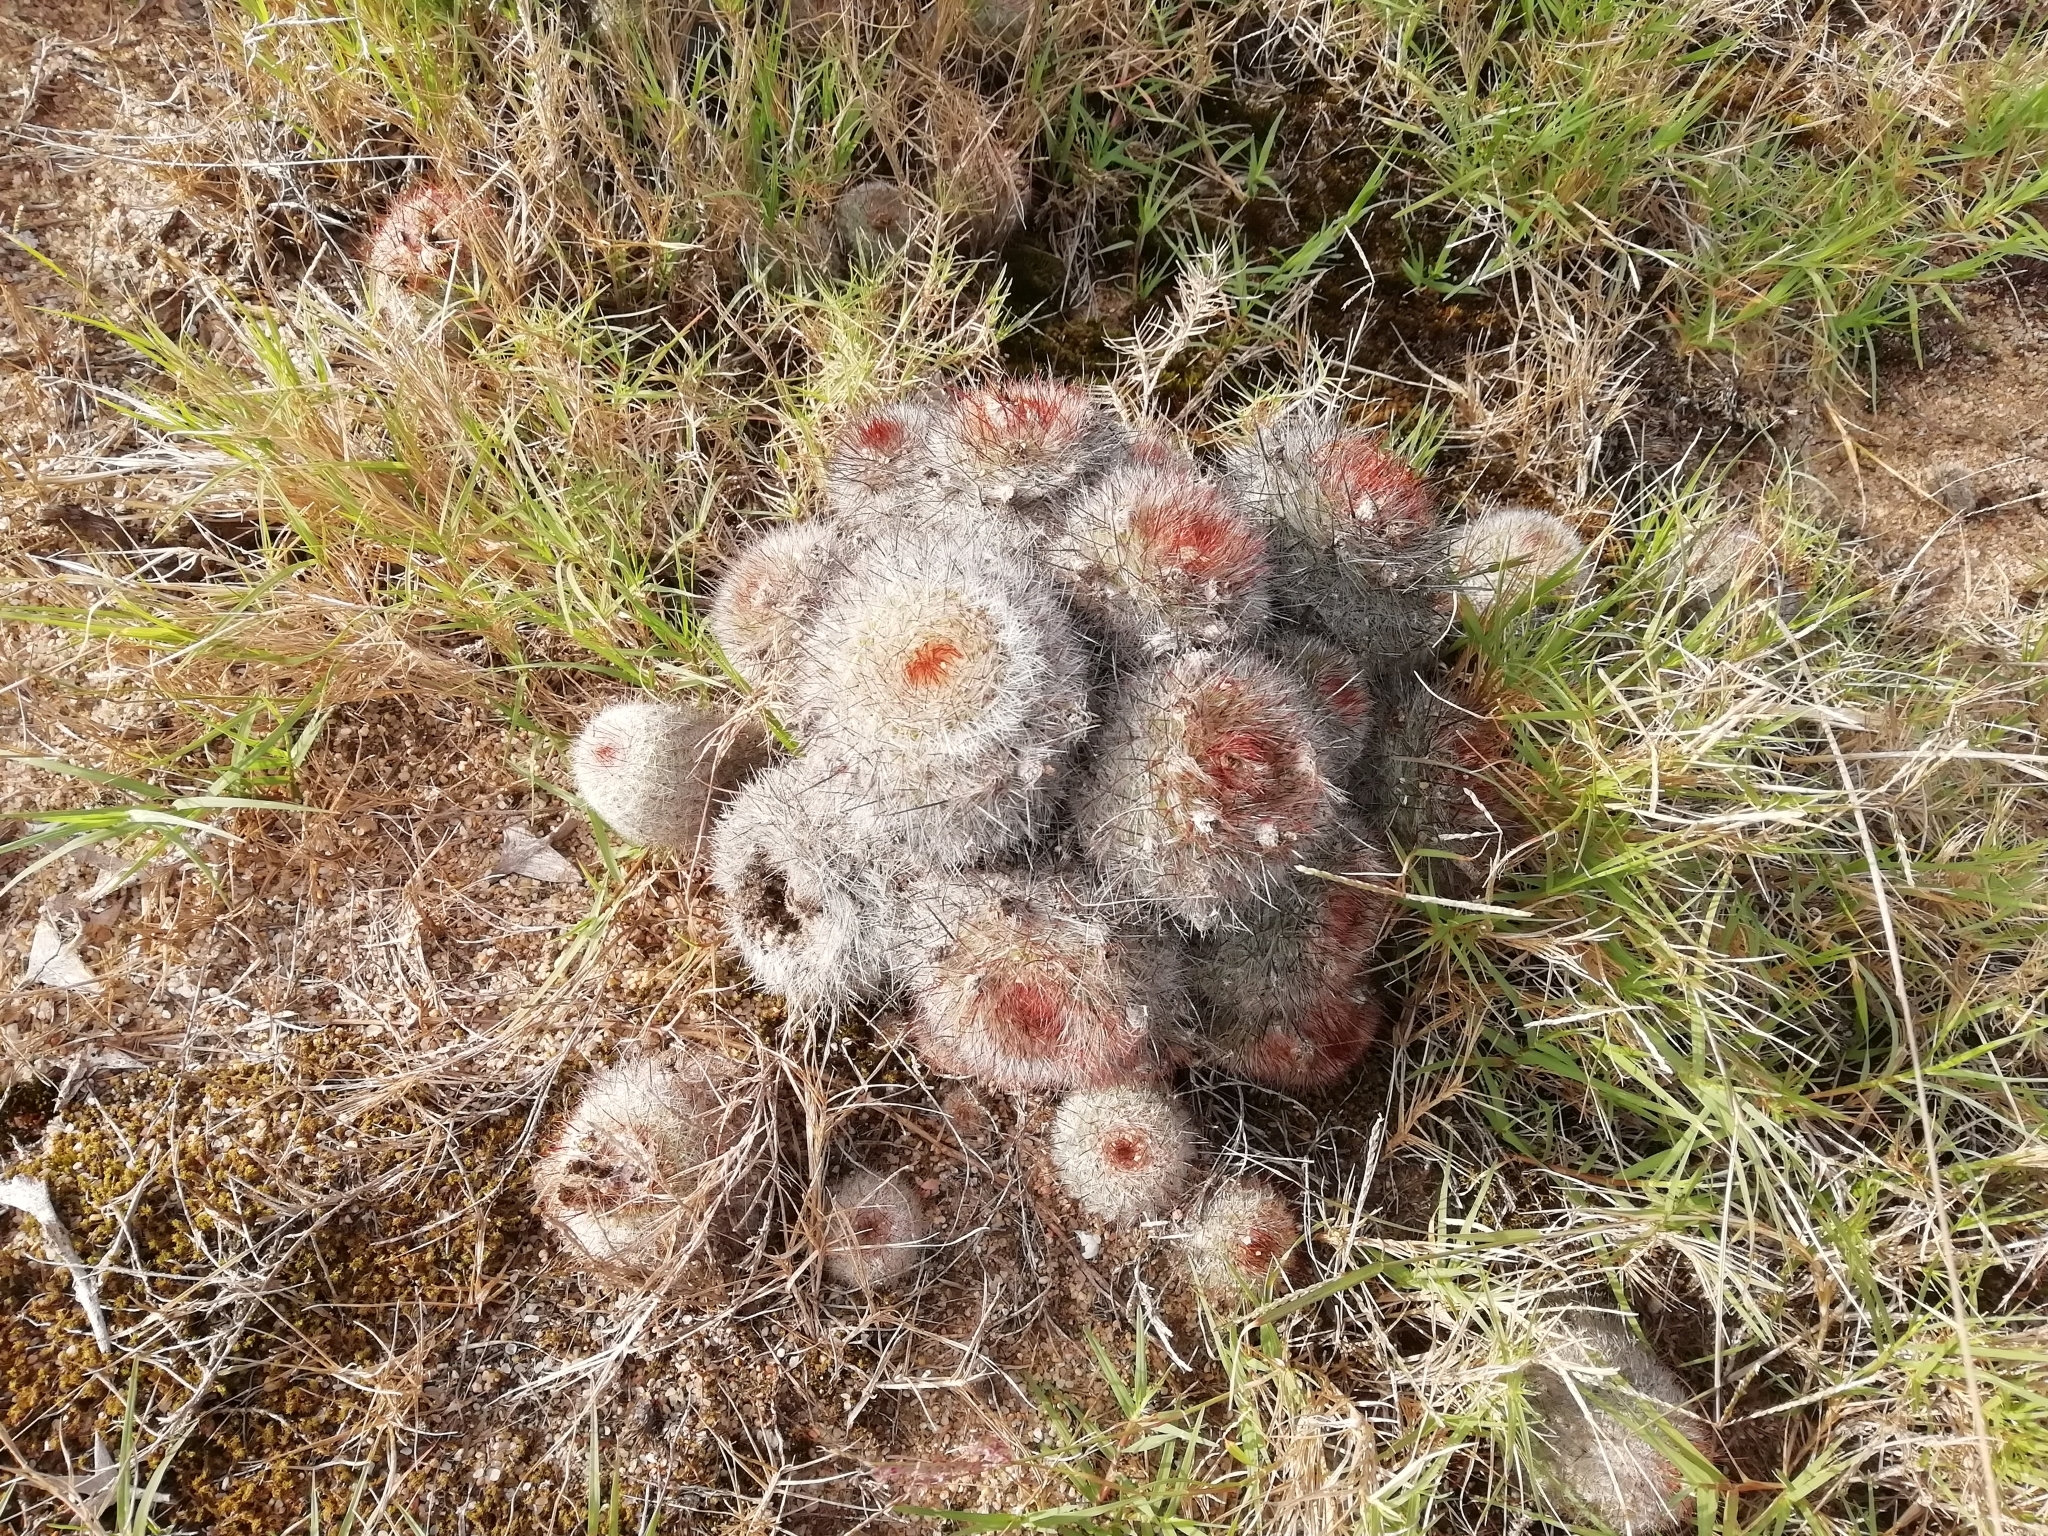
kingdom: Plantae
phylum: Tracheophyta
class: Magnoliopsida
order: Caryophyllales
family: Cactaceae
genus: Parodia
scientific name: Parodia scopa
